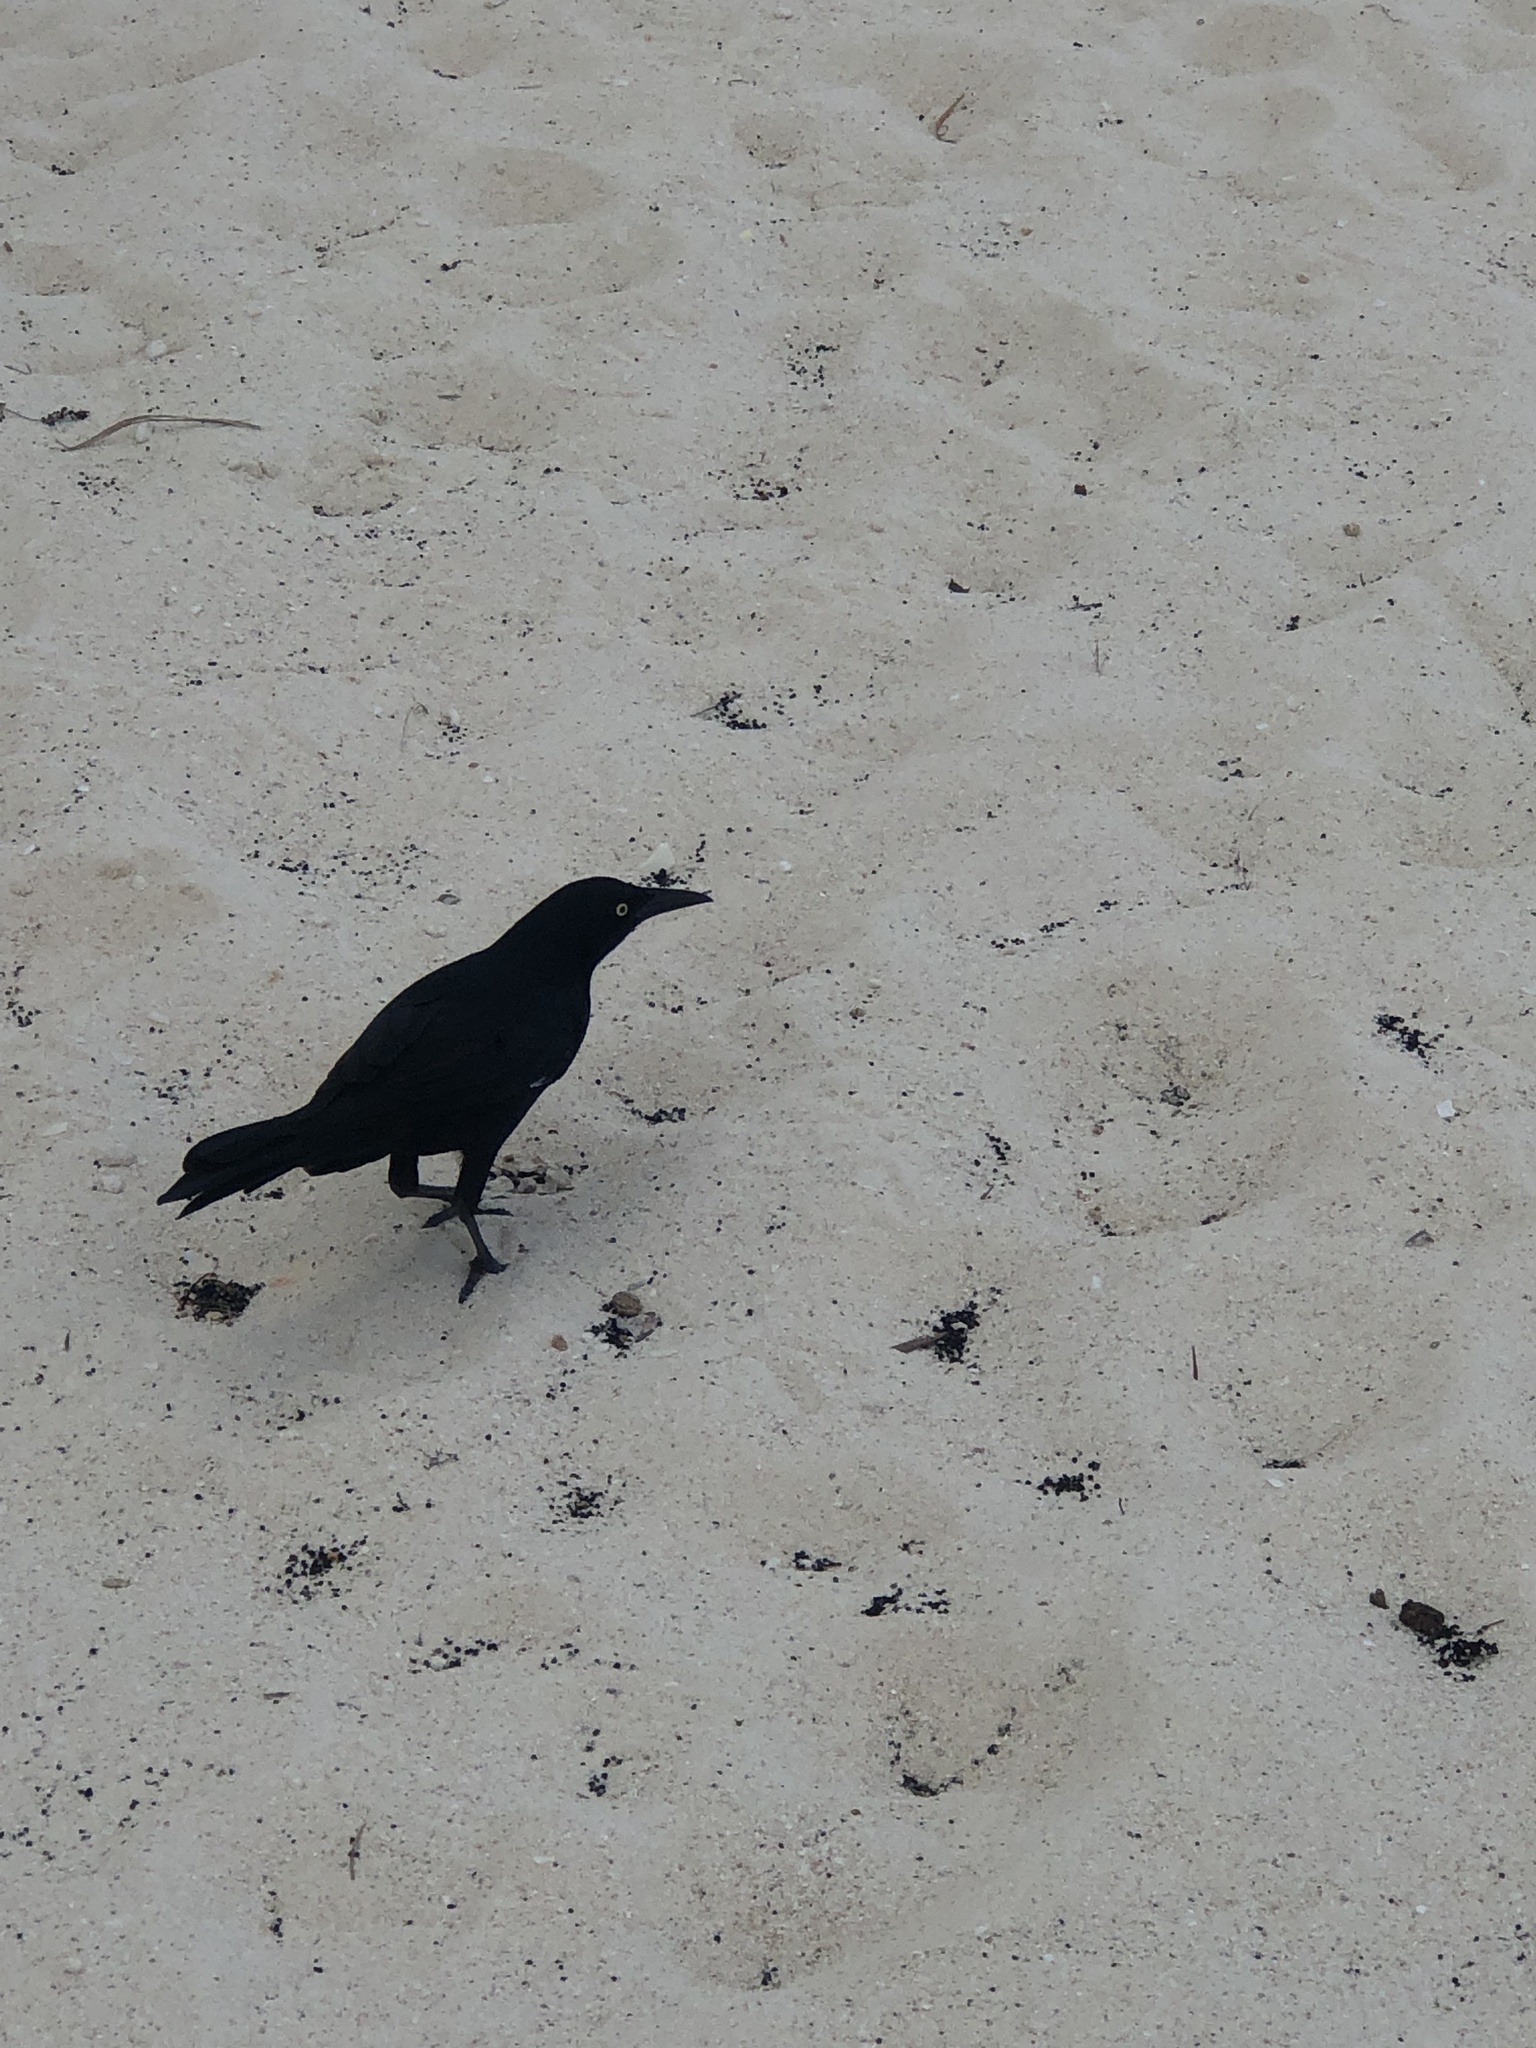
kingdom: Animalia
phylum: Chordata
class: Aves
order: Passeriformes
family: Icteridae
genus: Quiscalus
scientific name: Quiscalus mexicanus
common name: Great-tailed grackle
